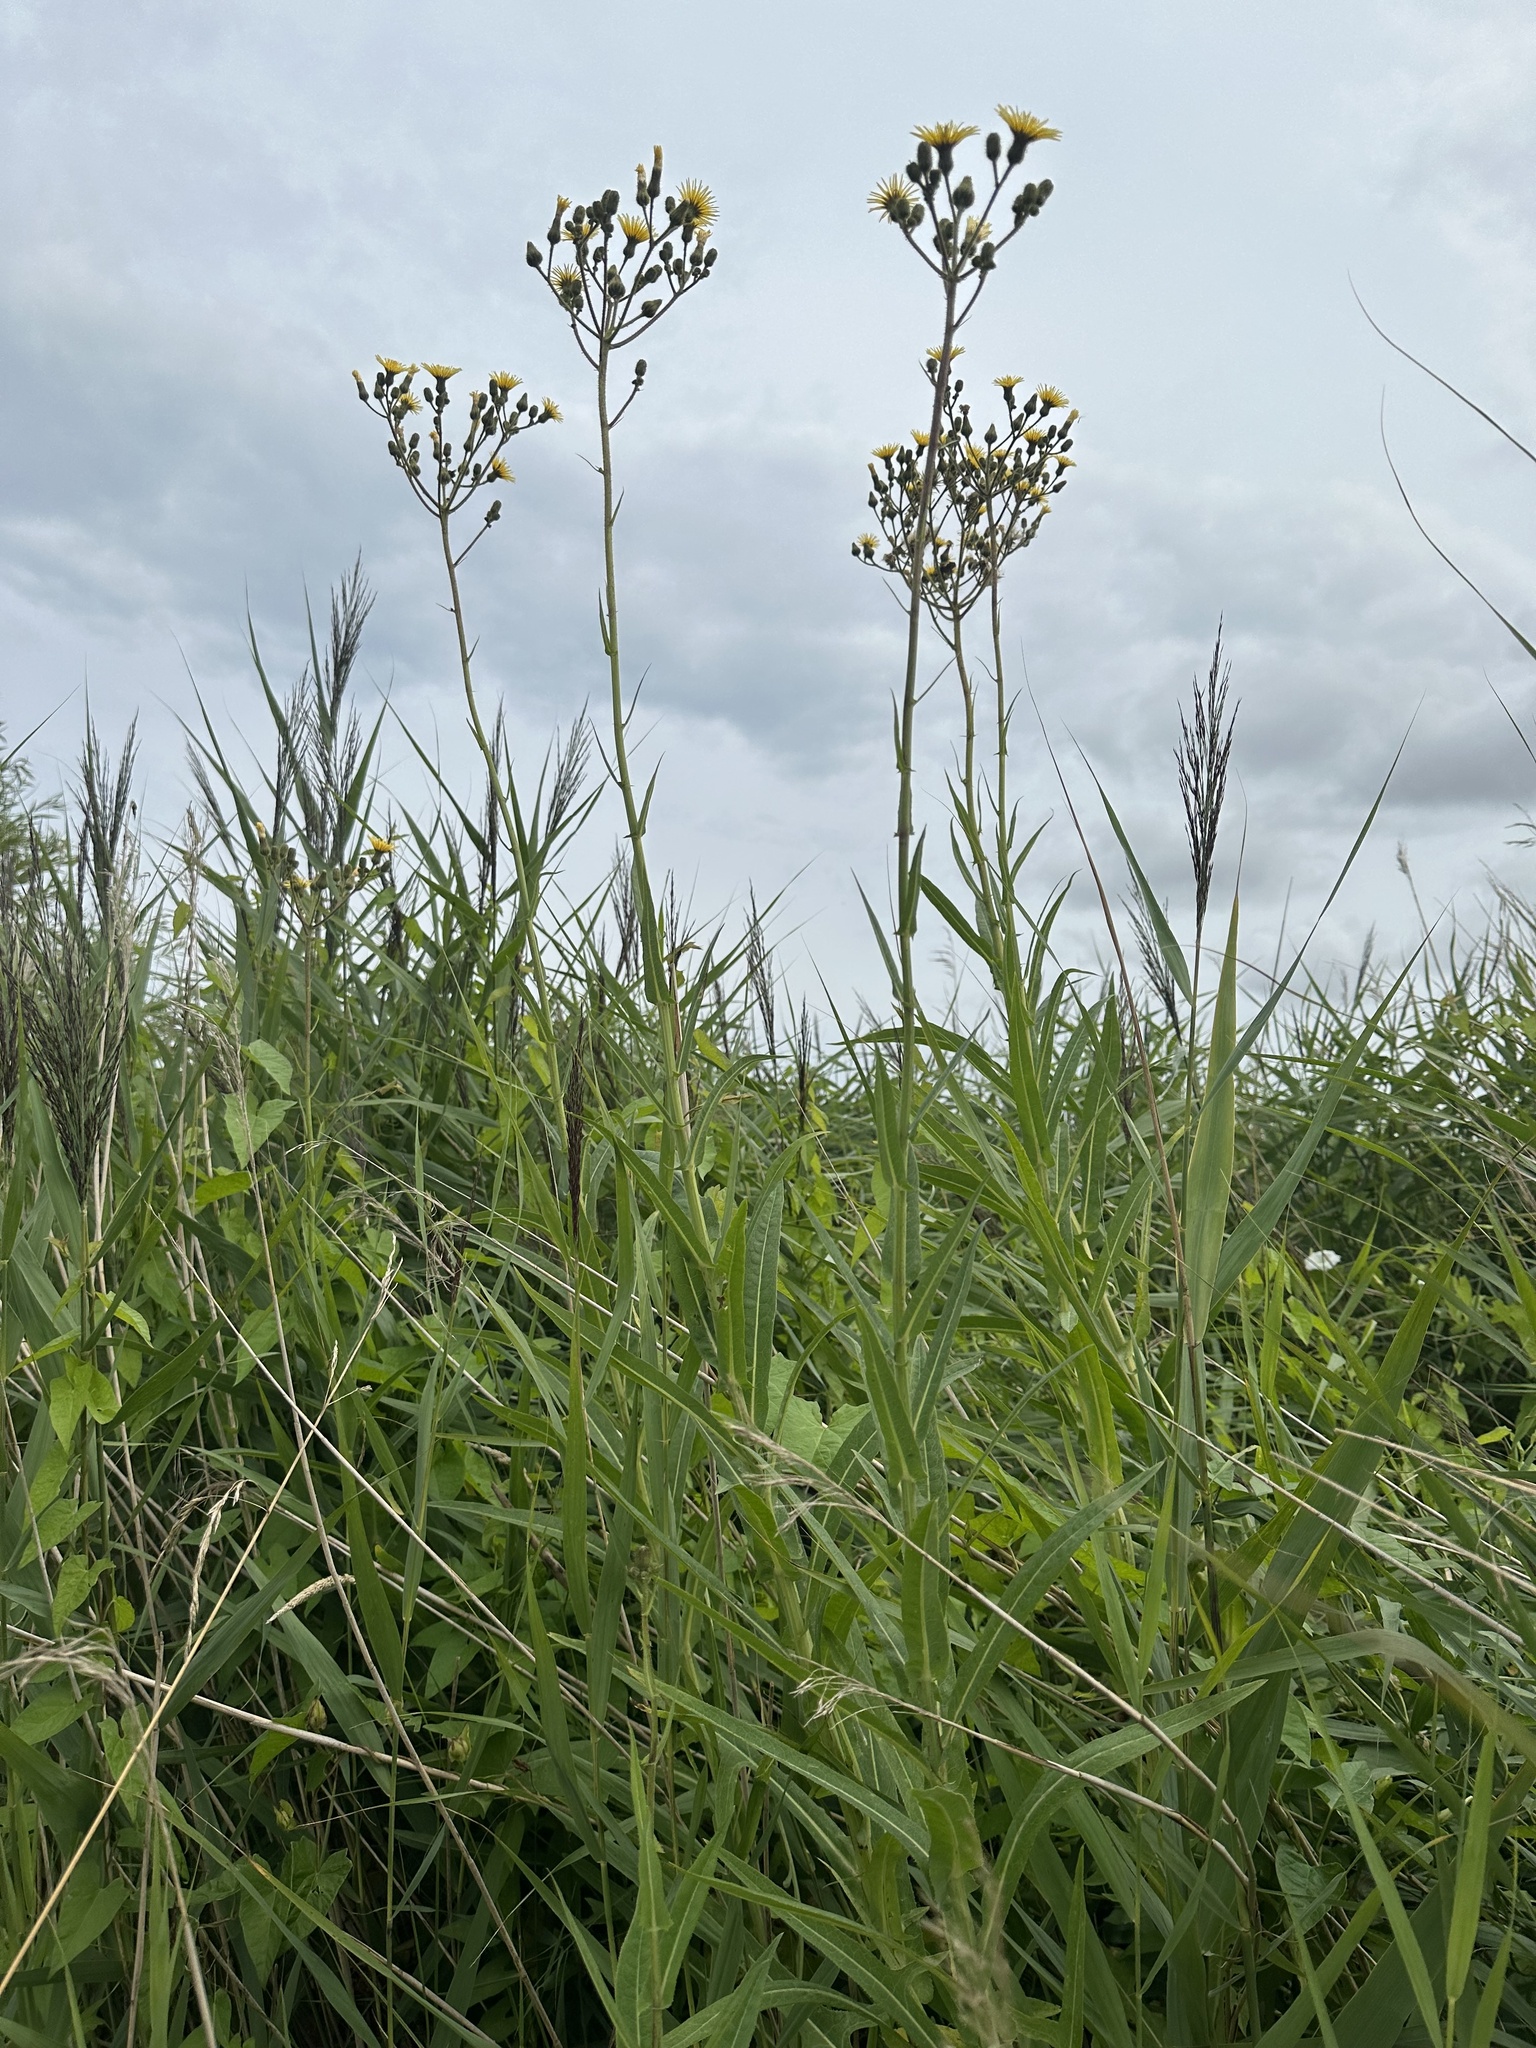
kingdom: Plantae
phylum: Tracheophyta
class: Magnoliopsida
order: Asterales
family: Asteraceae
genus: Sonchus
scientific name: Sonchus palustris
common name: Marsh sow-thistle
